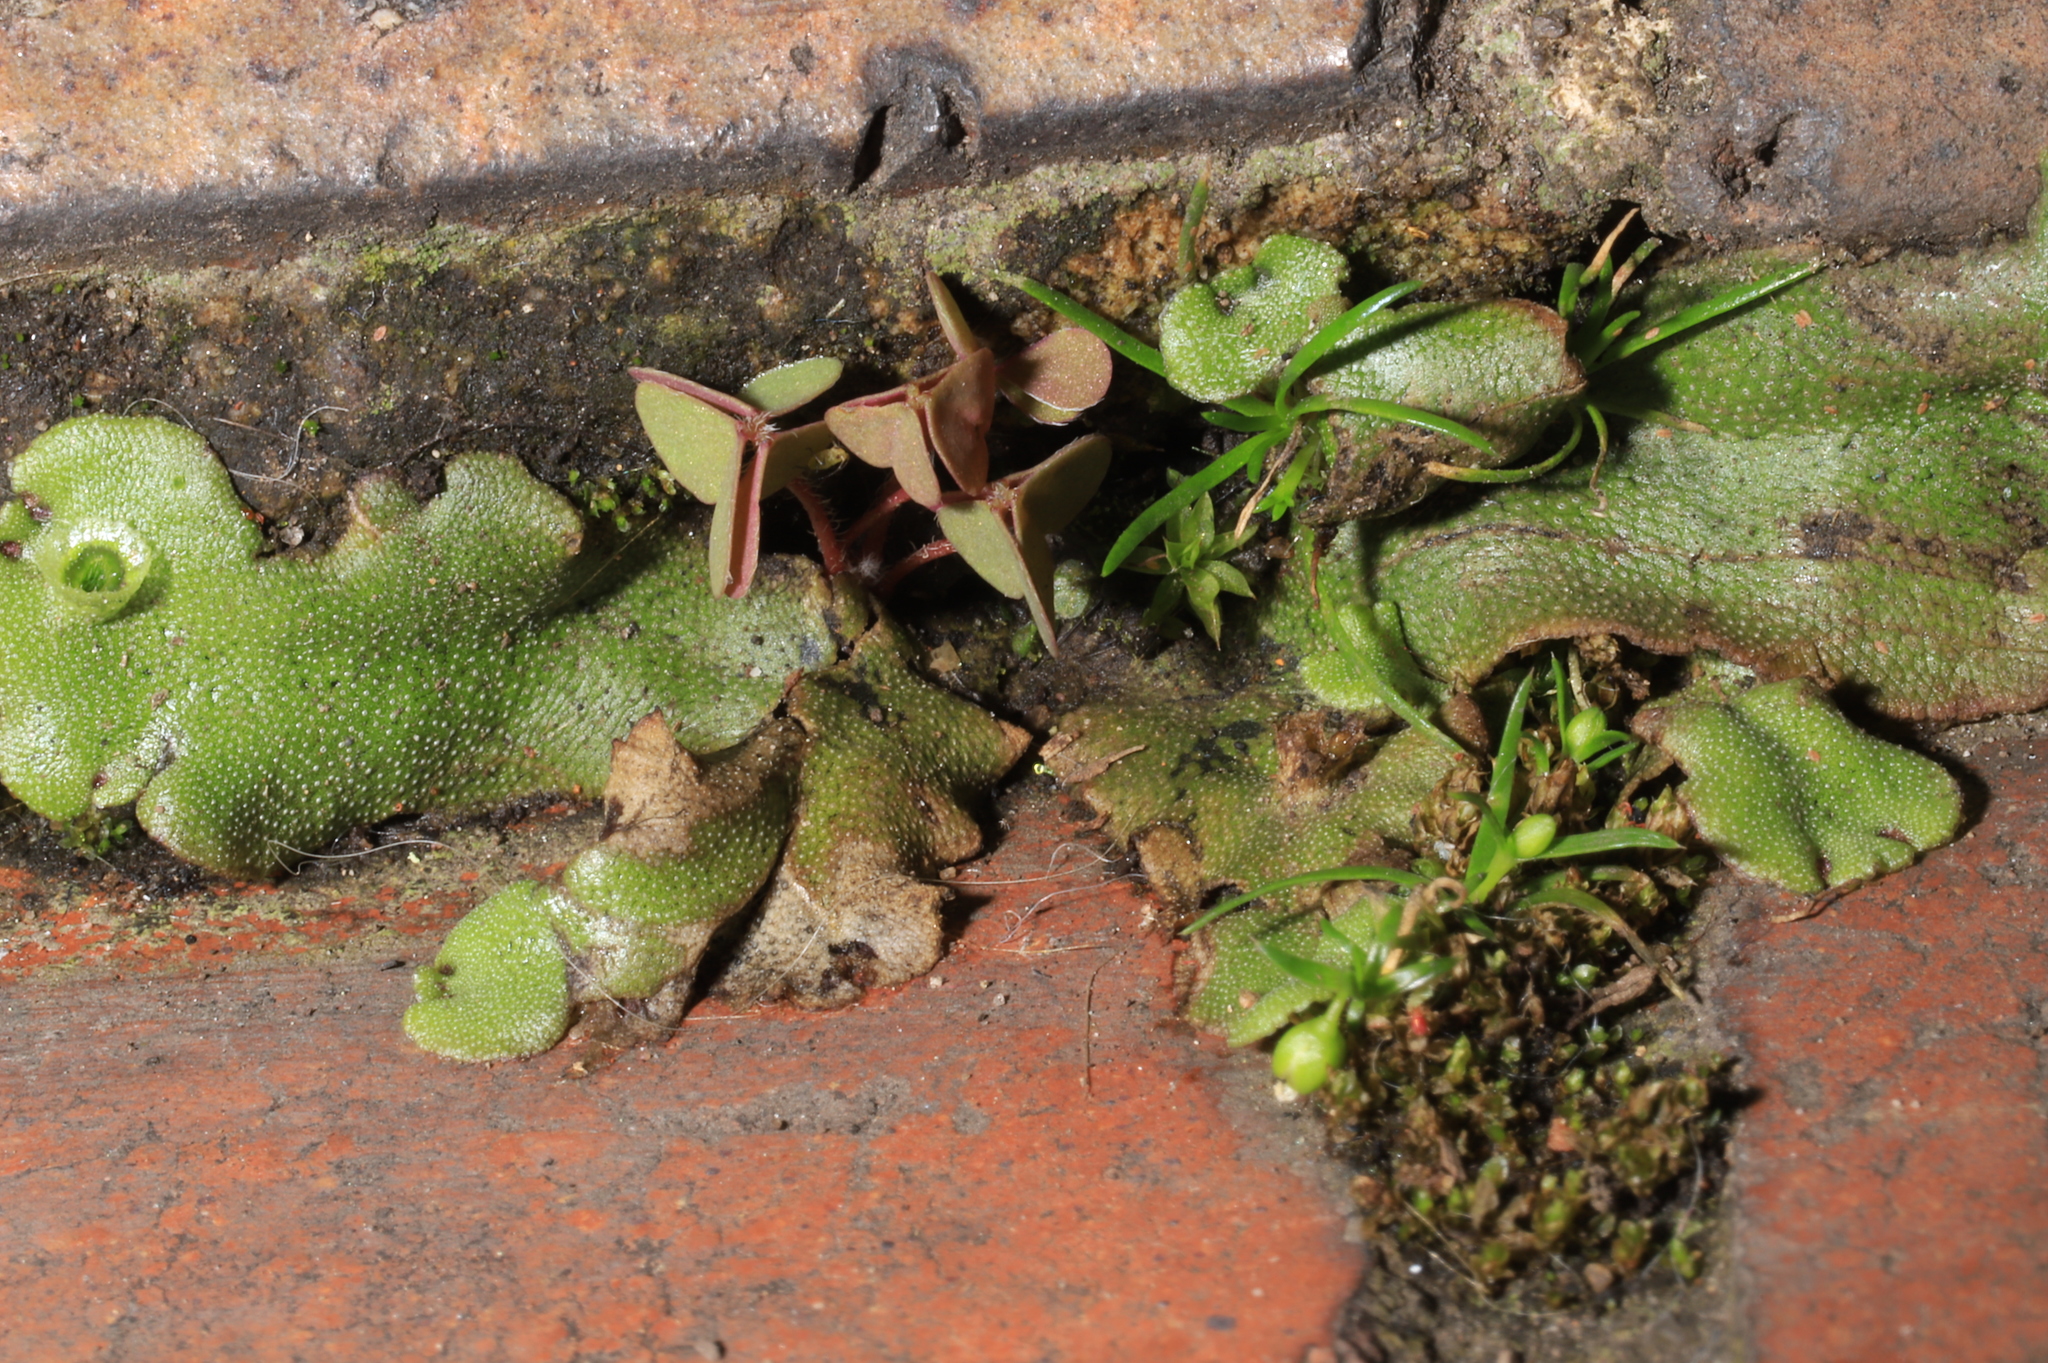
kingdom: Plantae
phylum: Marchantiophyta
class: Marchantiopsida
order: Marchantiales
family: Marchantiaceae
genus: Marchantia
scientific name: Marchantia polymorpha
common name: Common liverwort
